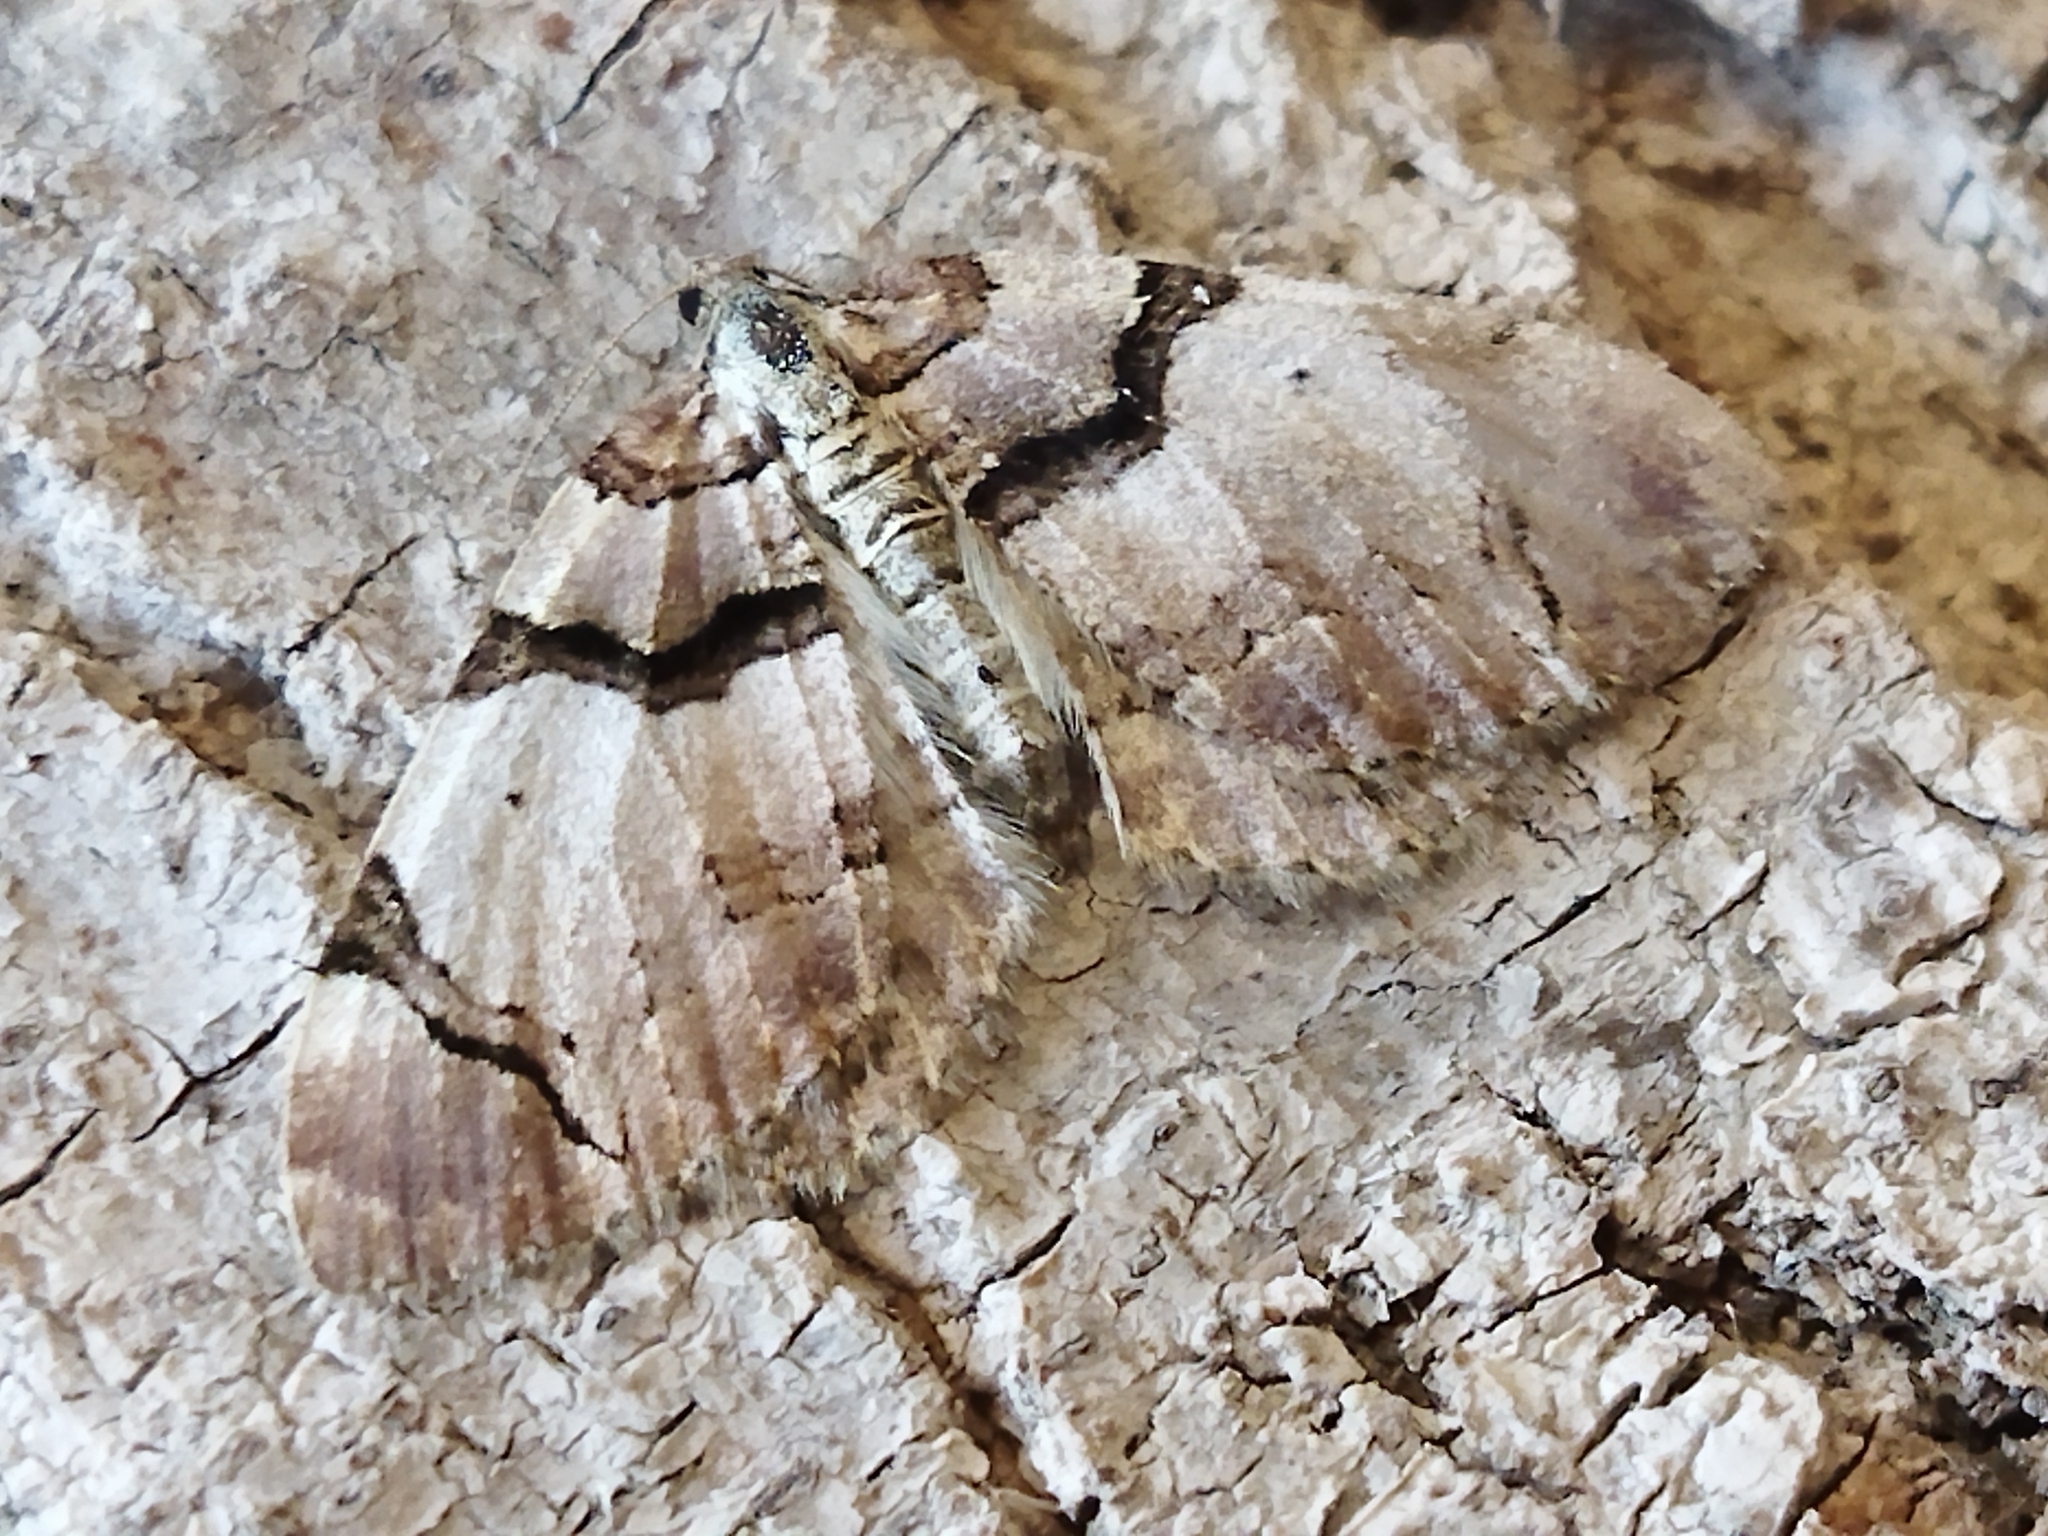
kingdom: Animalia
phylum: Arthropoda
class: Insecta
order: Lepidoptera
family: Geometridae
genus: Anticlea
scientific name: Anticlea derivata
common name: Streamer
